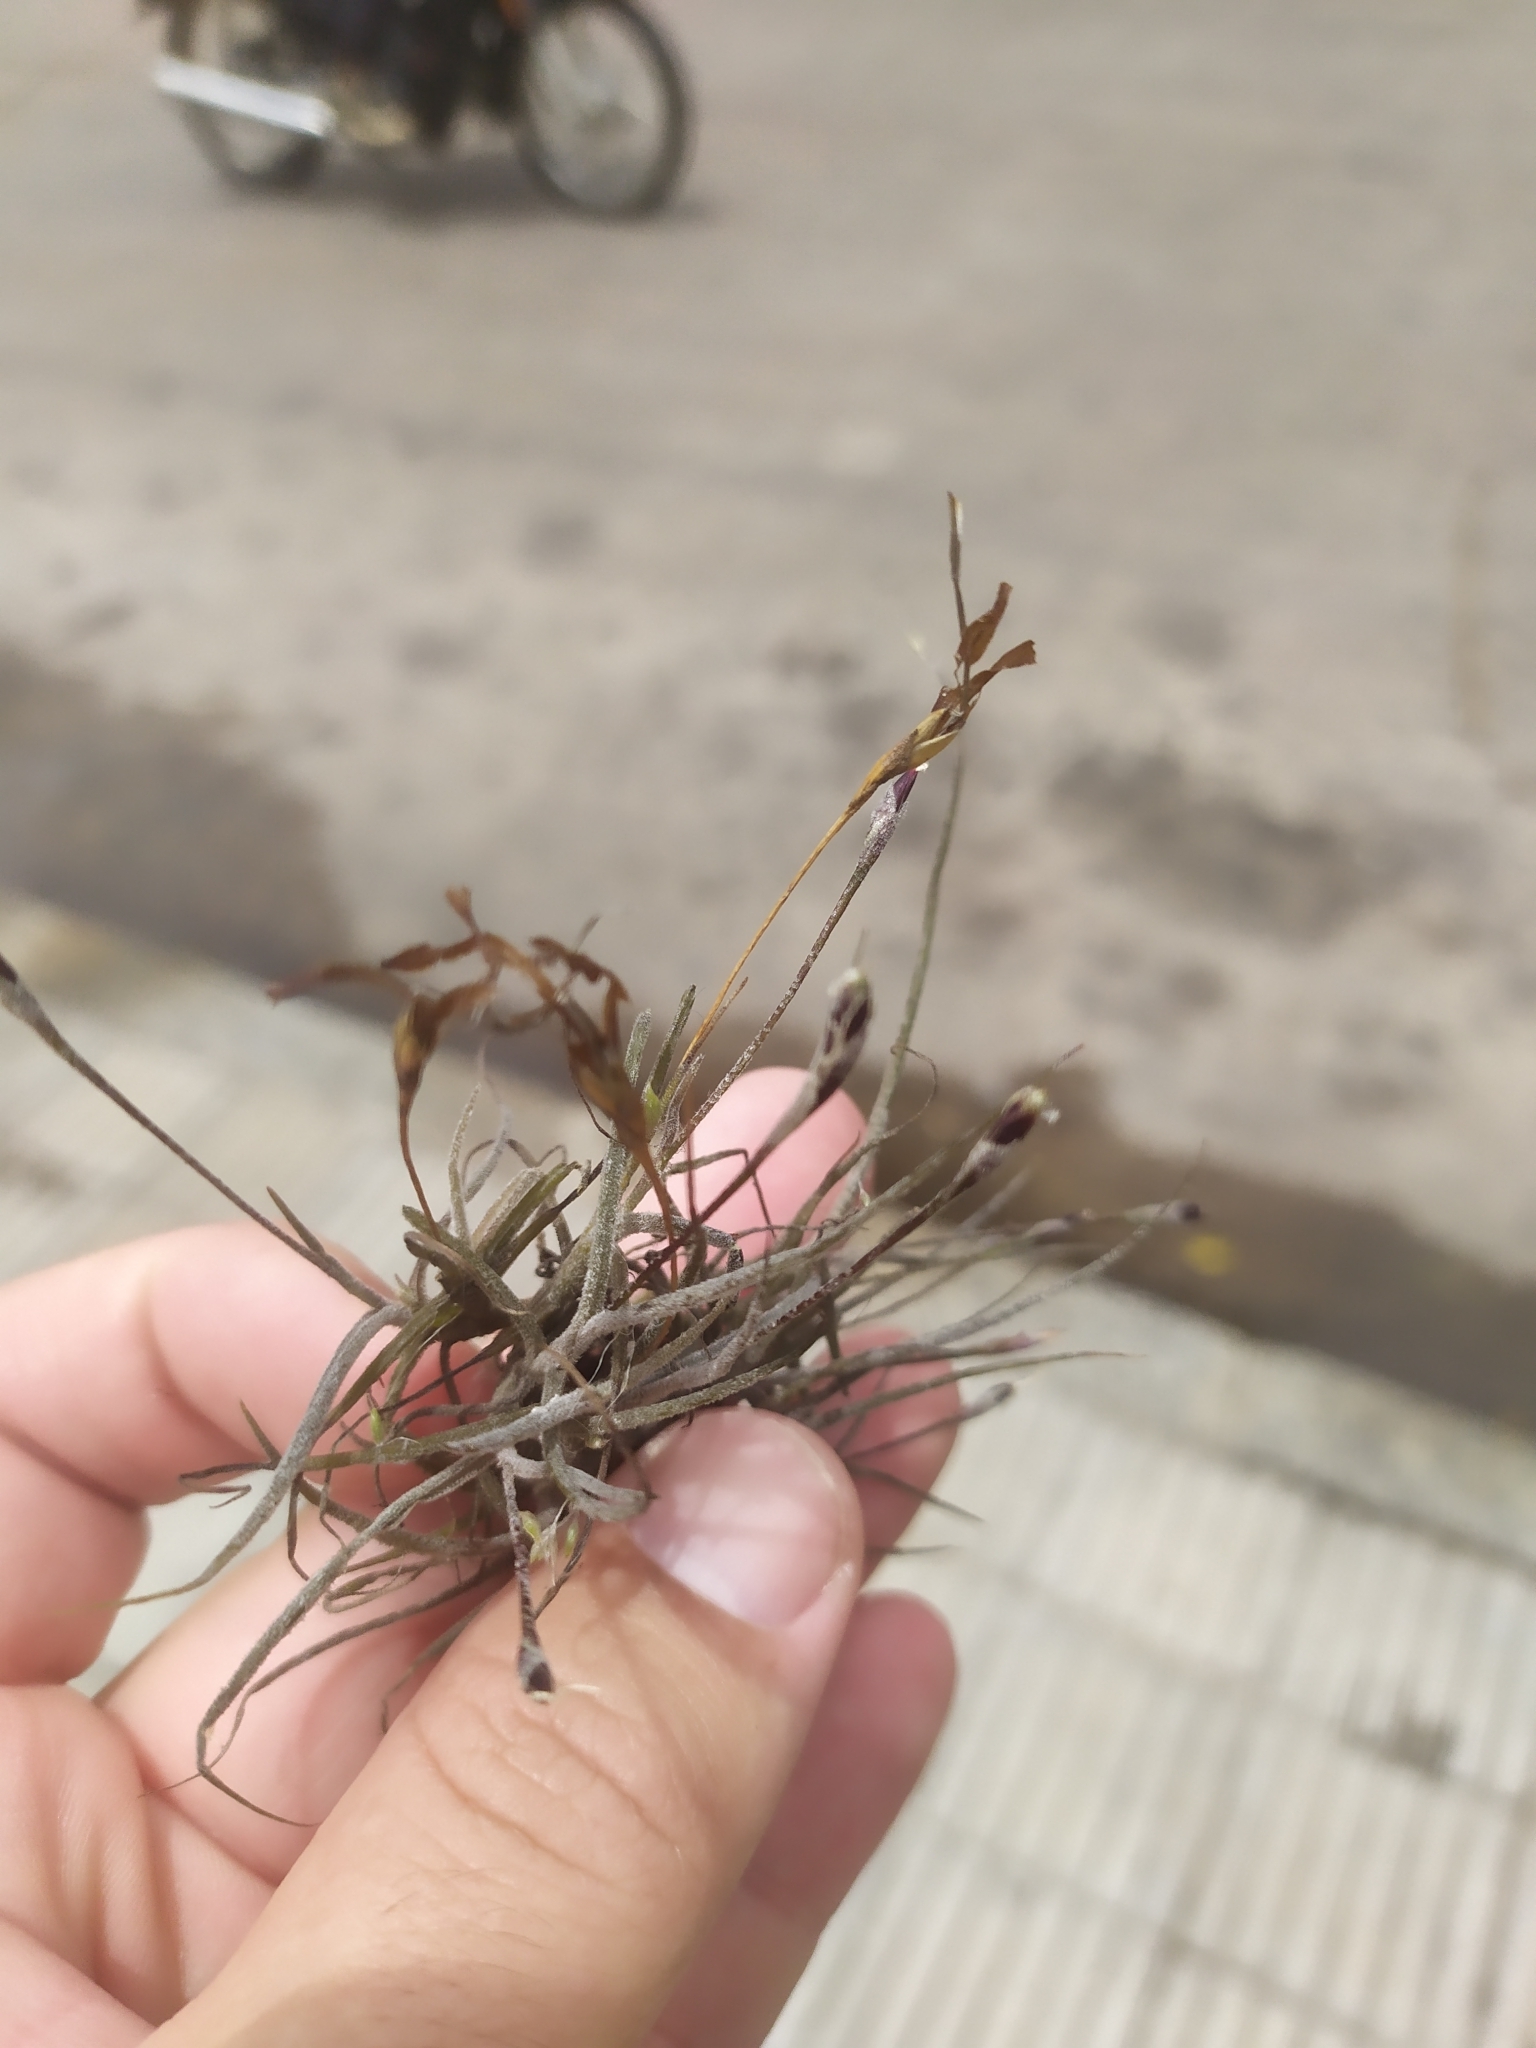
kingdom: Plantae
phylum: Tracheophyta
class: Liliopsida
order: Poales
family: Bromeliaceae
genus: Tillandsia
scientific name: Tillandsia recurvata
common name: Small ballmoss
